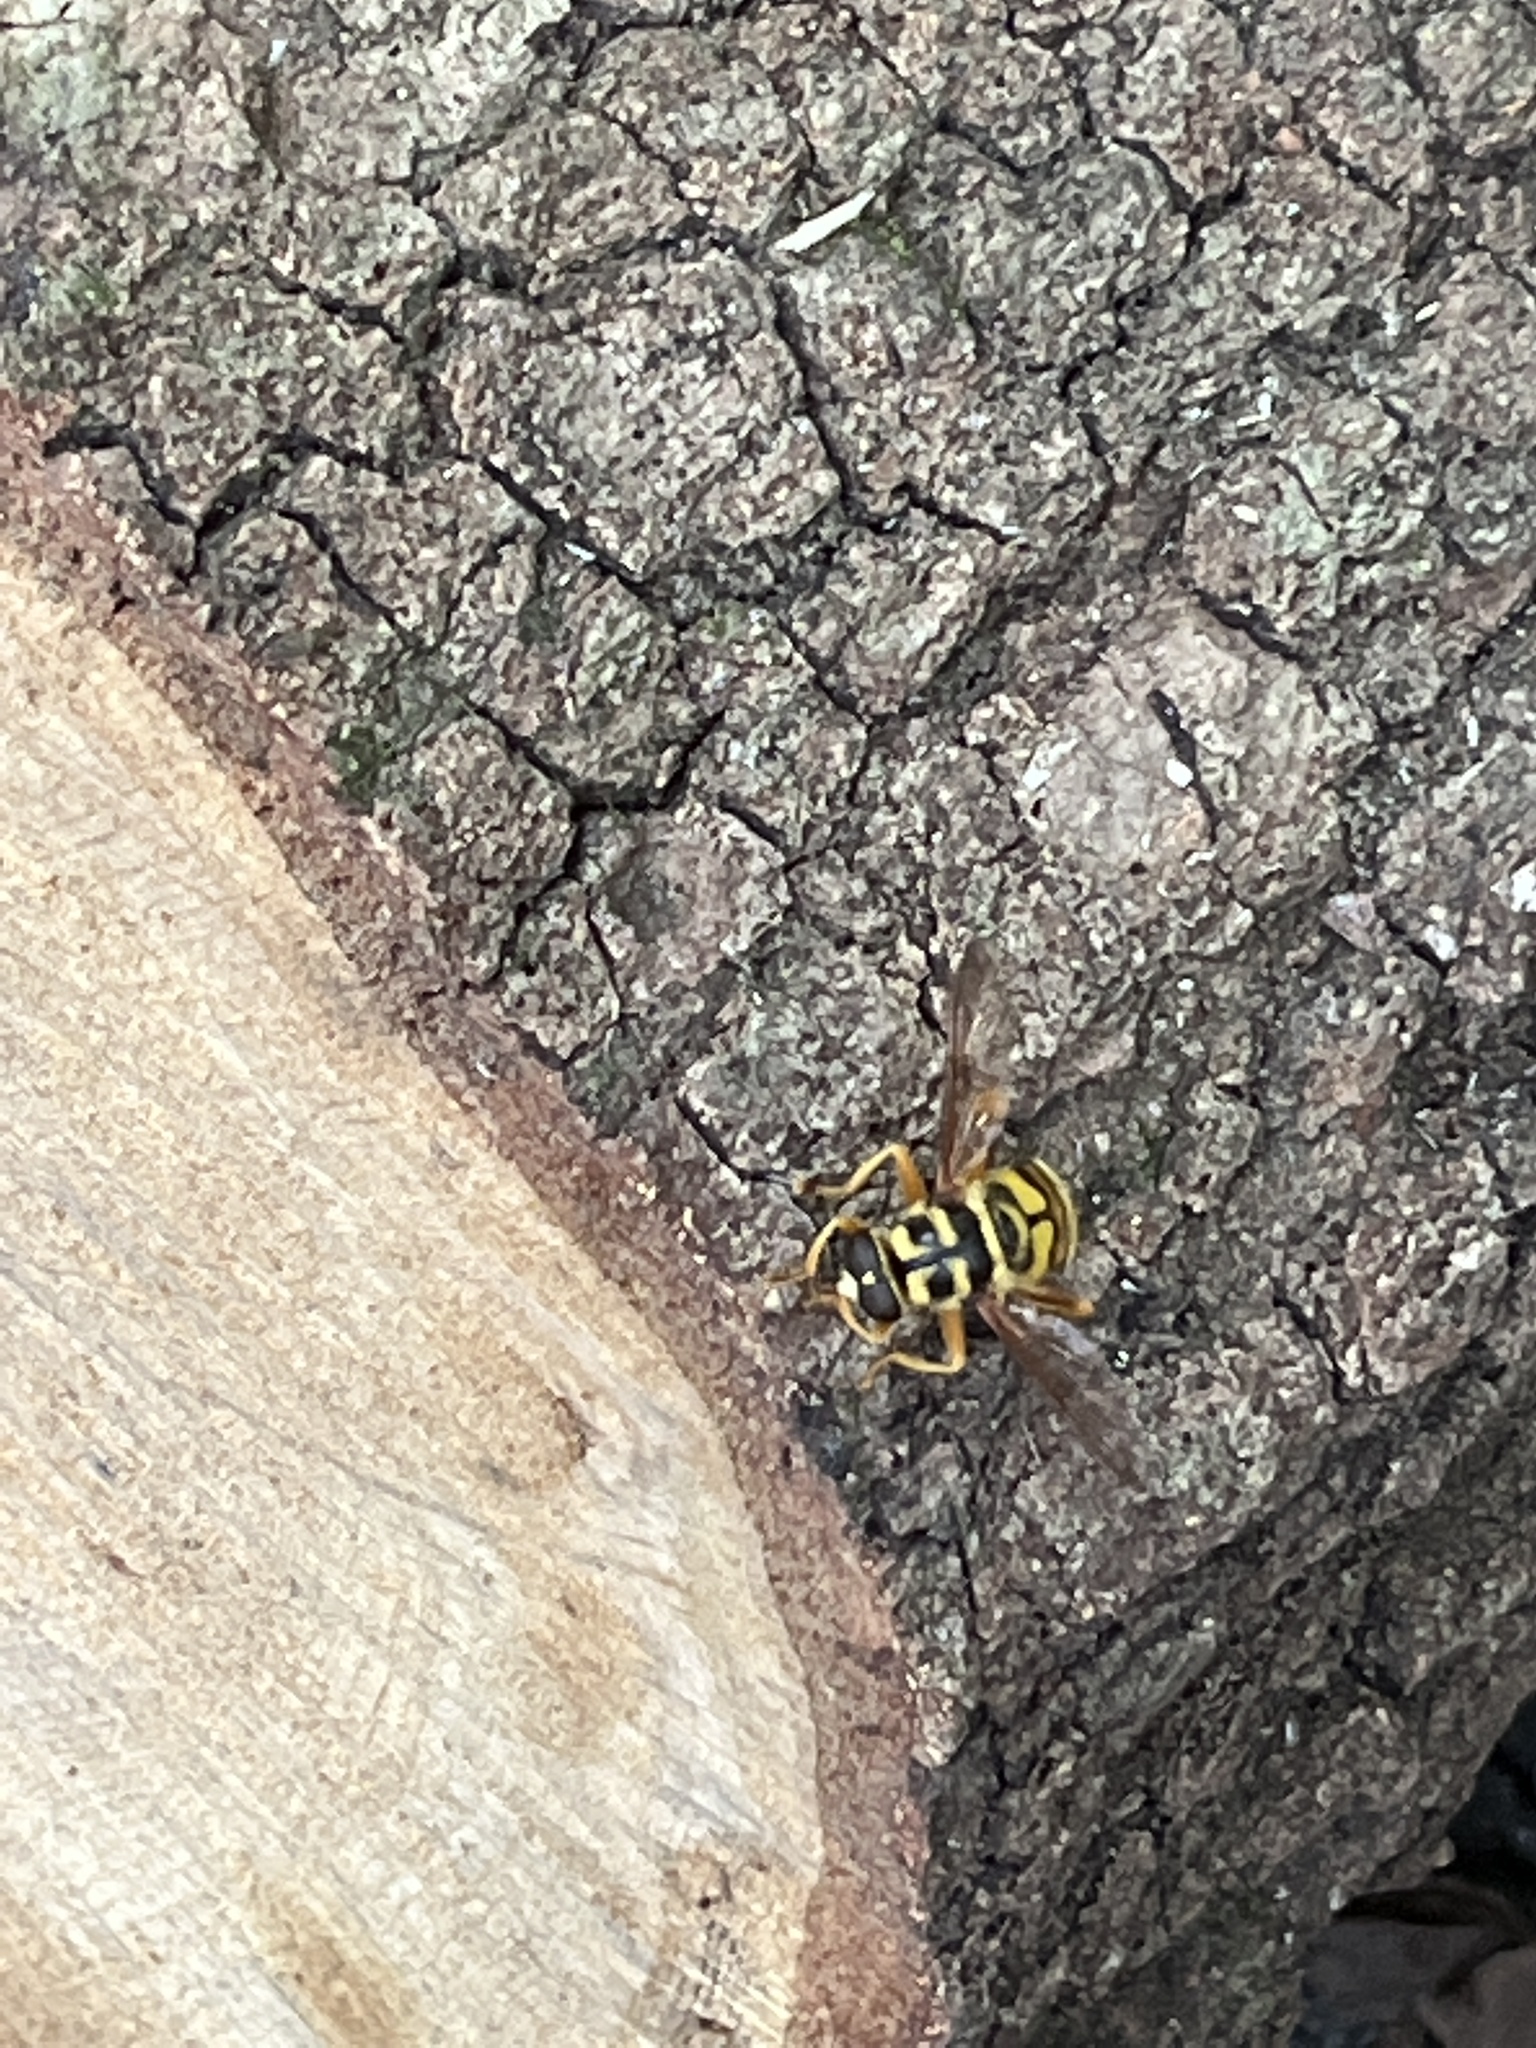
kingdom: Animalia
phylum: Arthropoda
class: Insecta
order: Diptera
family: Syrphidae
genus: Milesia
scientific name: Milesia virginiensis
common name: Virginia giant
